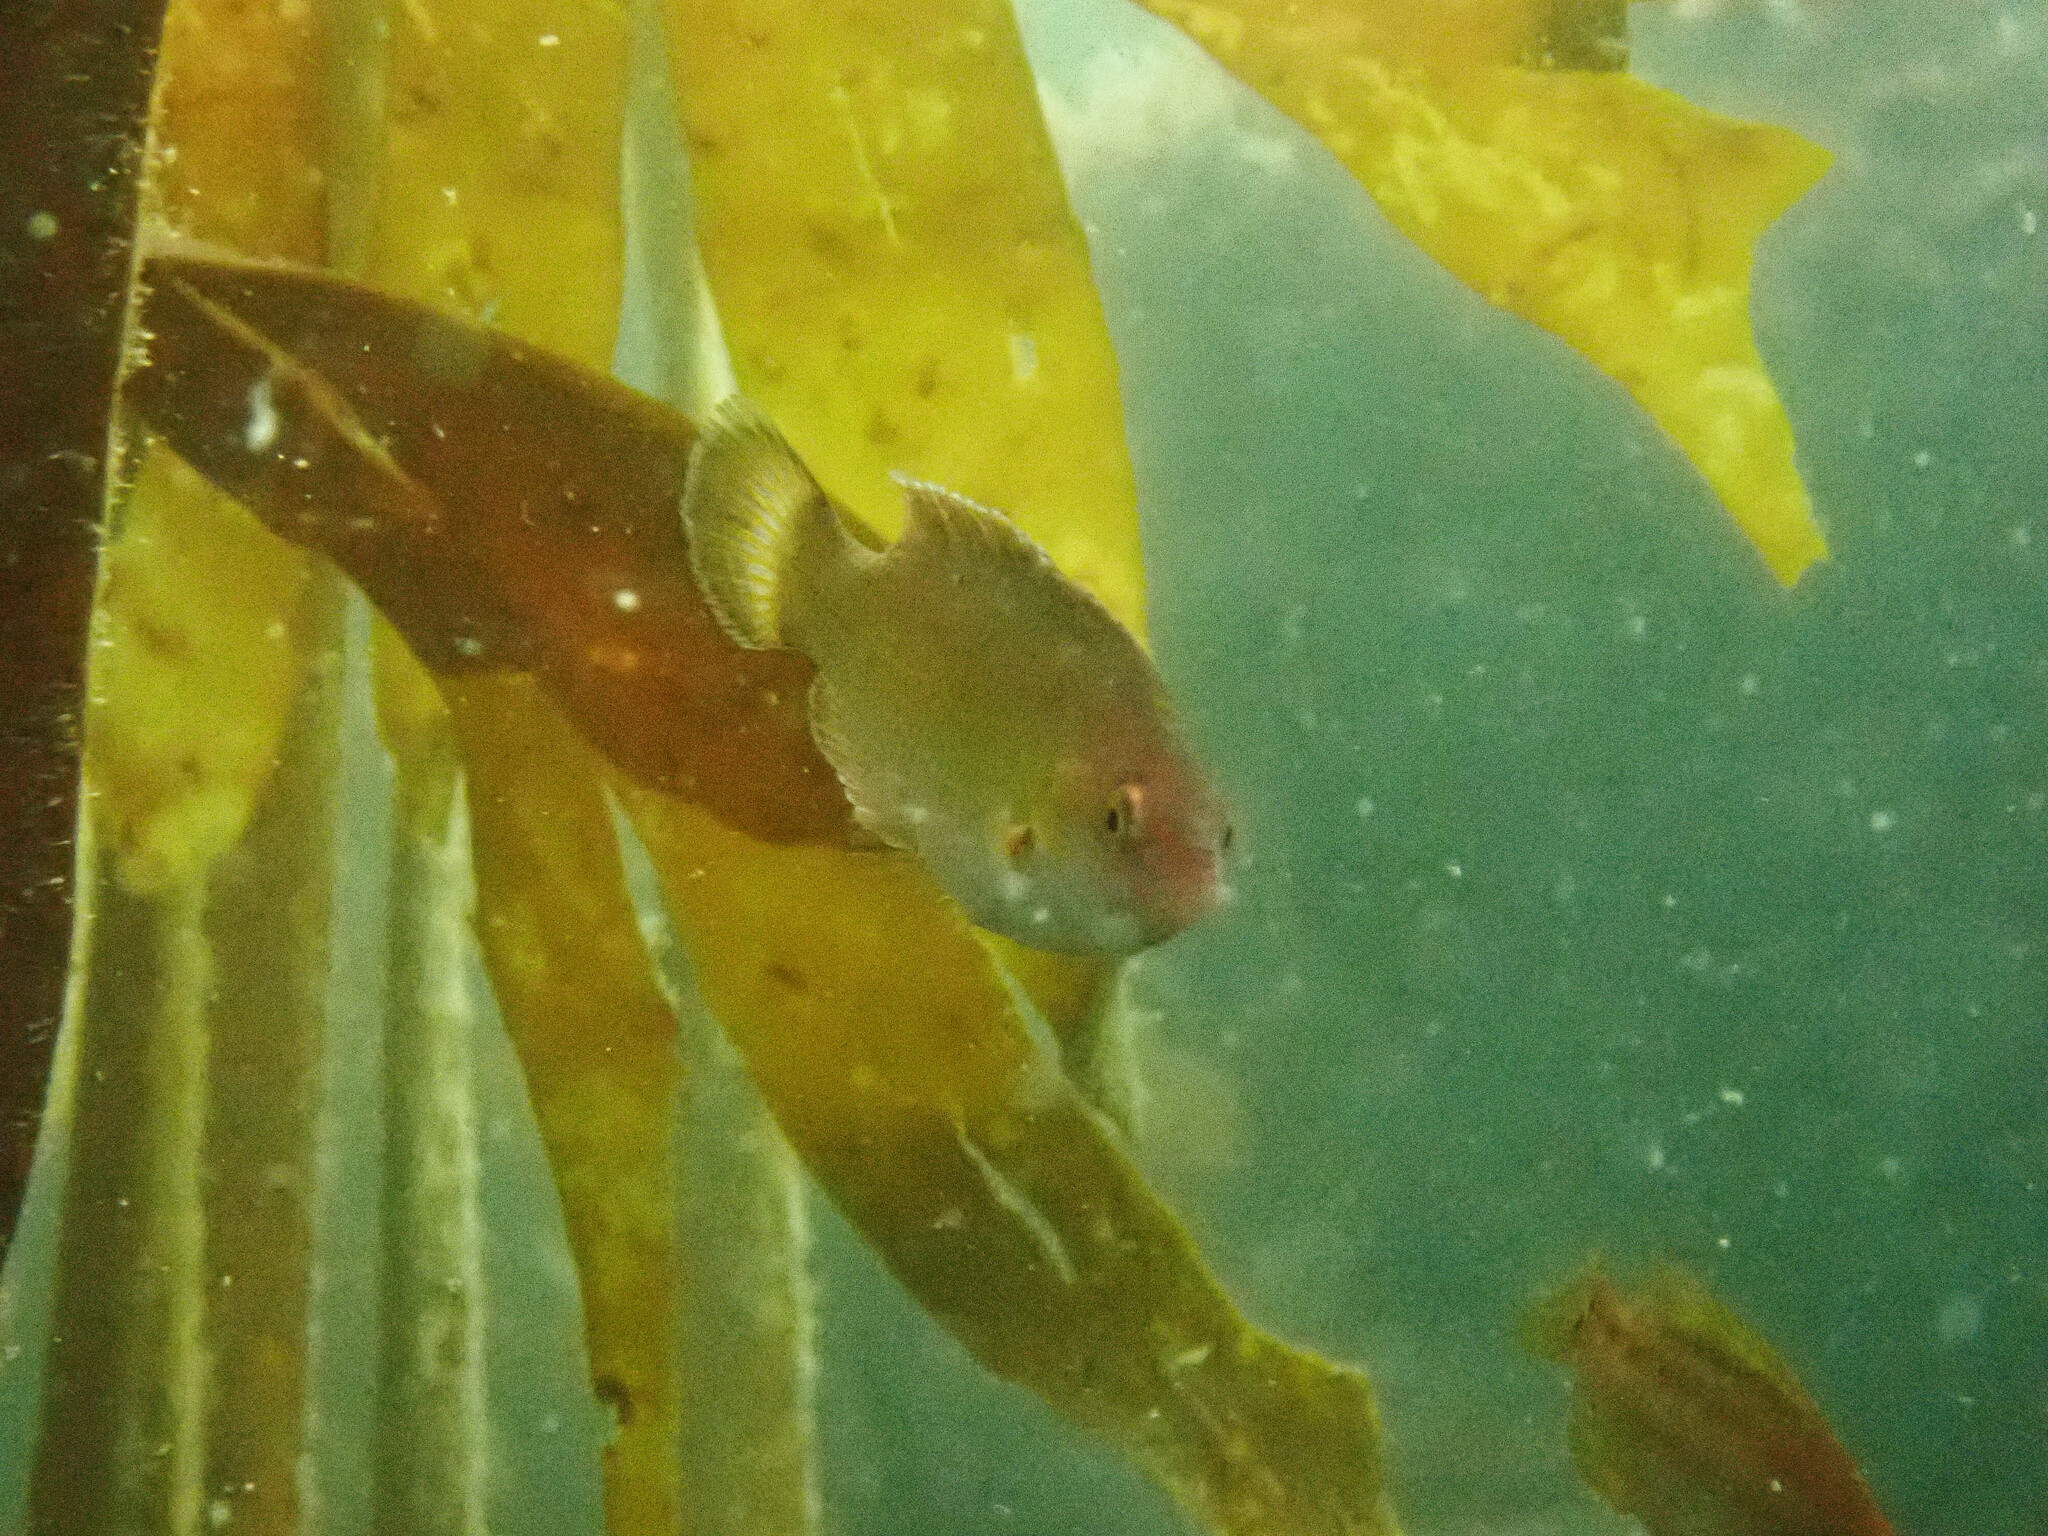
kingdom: Animalia
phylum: Chordata
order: Perciformes
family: Labridae
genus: Centrolabrus
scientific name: Centrolabrus exoletus
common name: Rock cook
